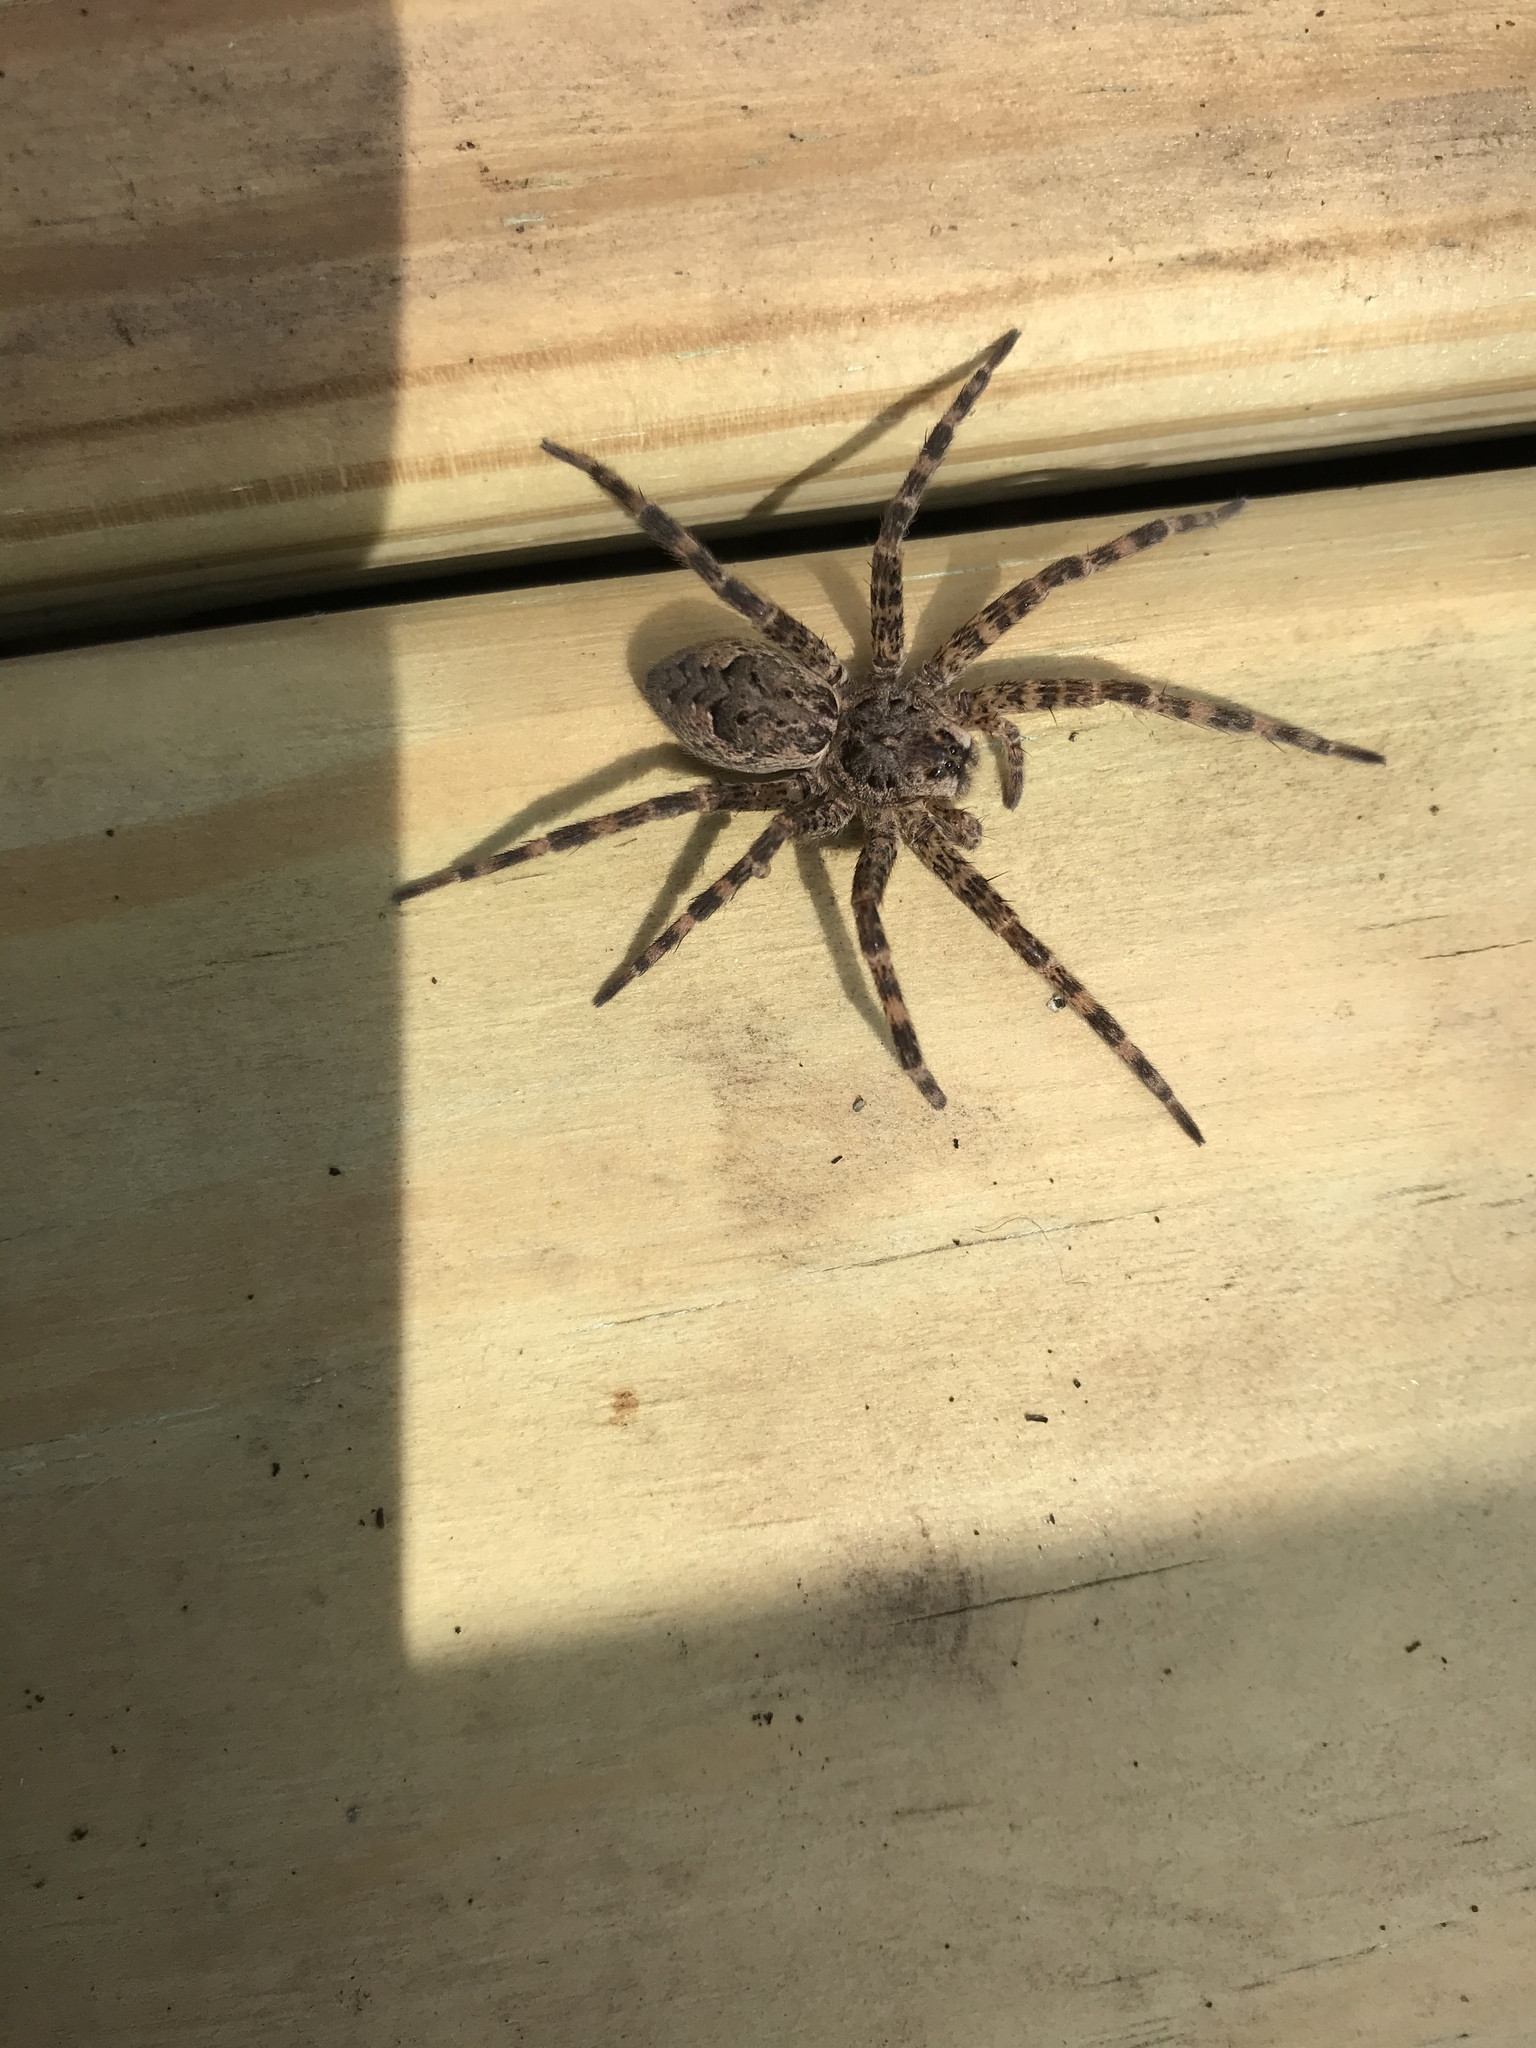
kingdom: Animalia
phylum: Arthropoda
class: Arachnida
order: Araneae
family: Pisauridae
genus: Dolomedes
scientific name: Dolomedes tenebrosus
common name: Dark fishing spider
